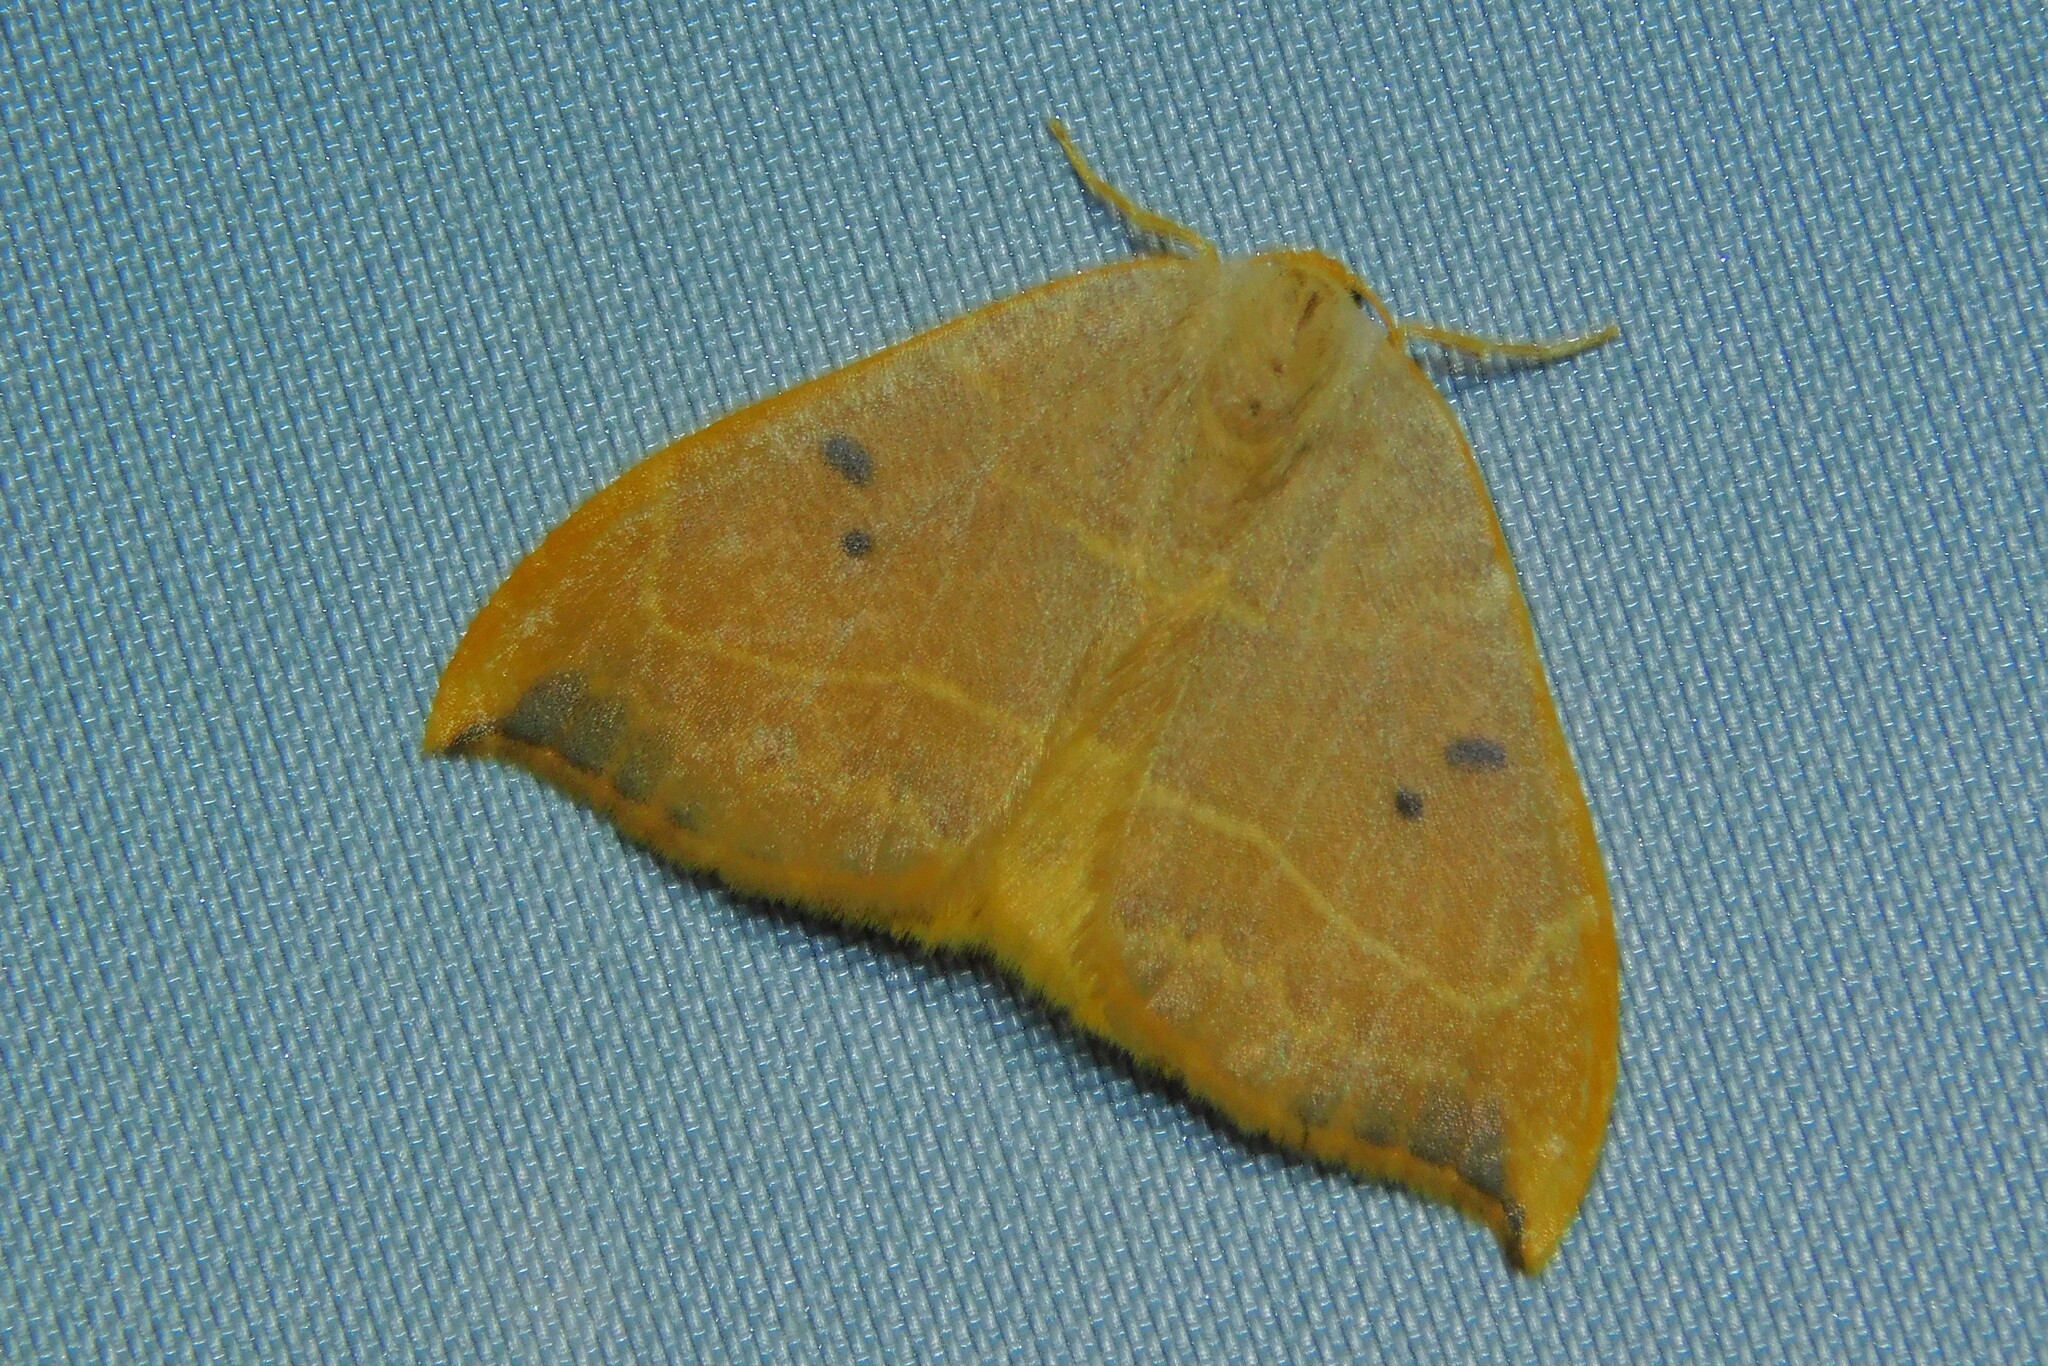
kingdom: Animalia
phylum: Arthropoda
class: Insecta
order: Lepidoptera
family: Drepanidae
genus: Watsonalla
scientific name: Watsonalla binaria
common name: Oak hook-tip
